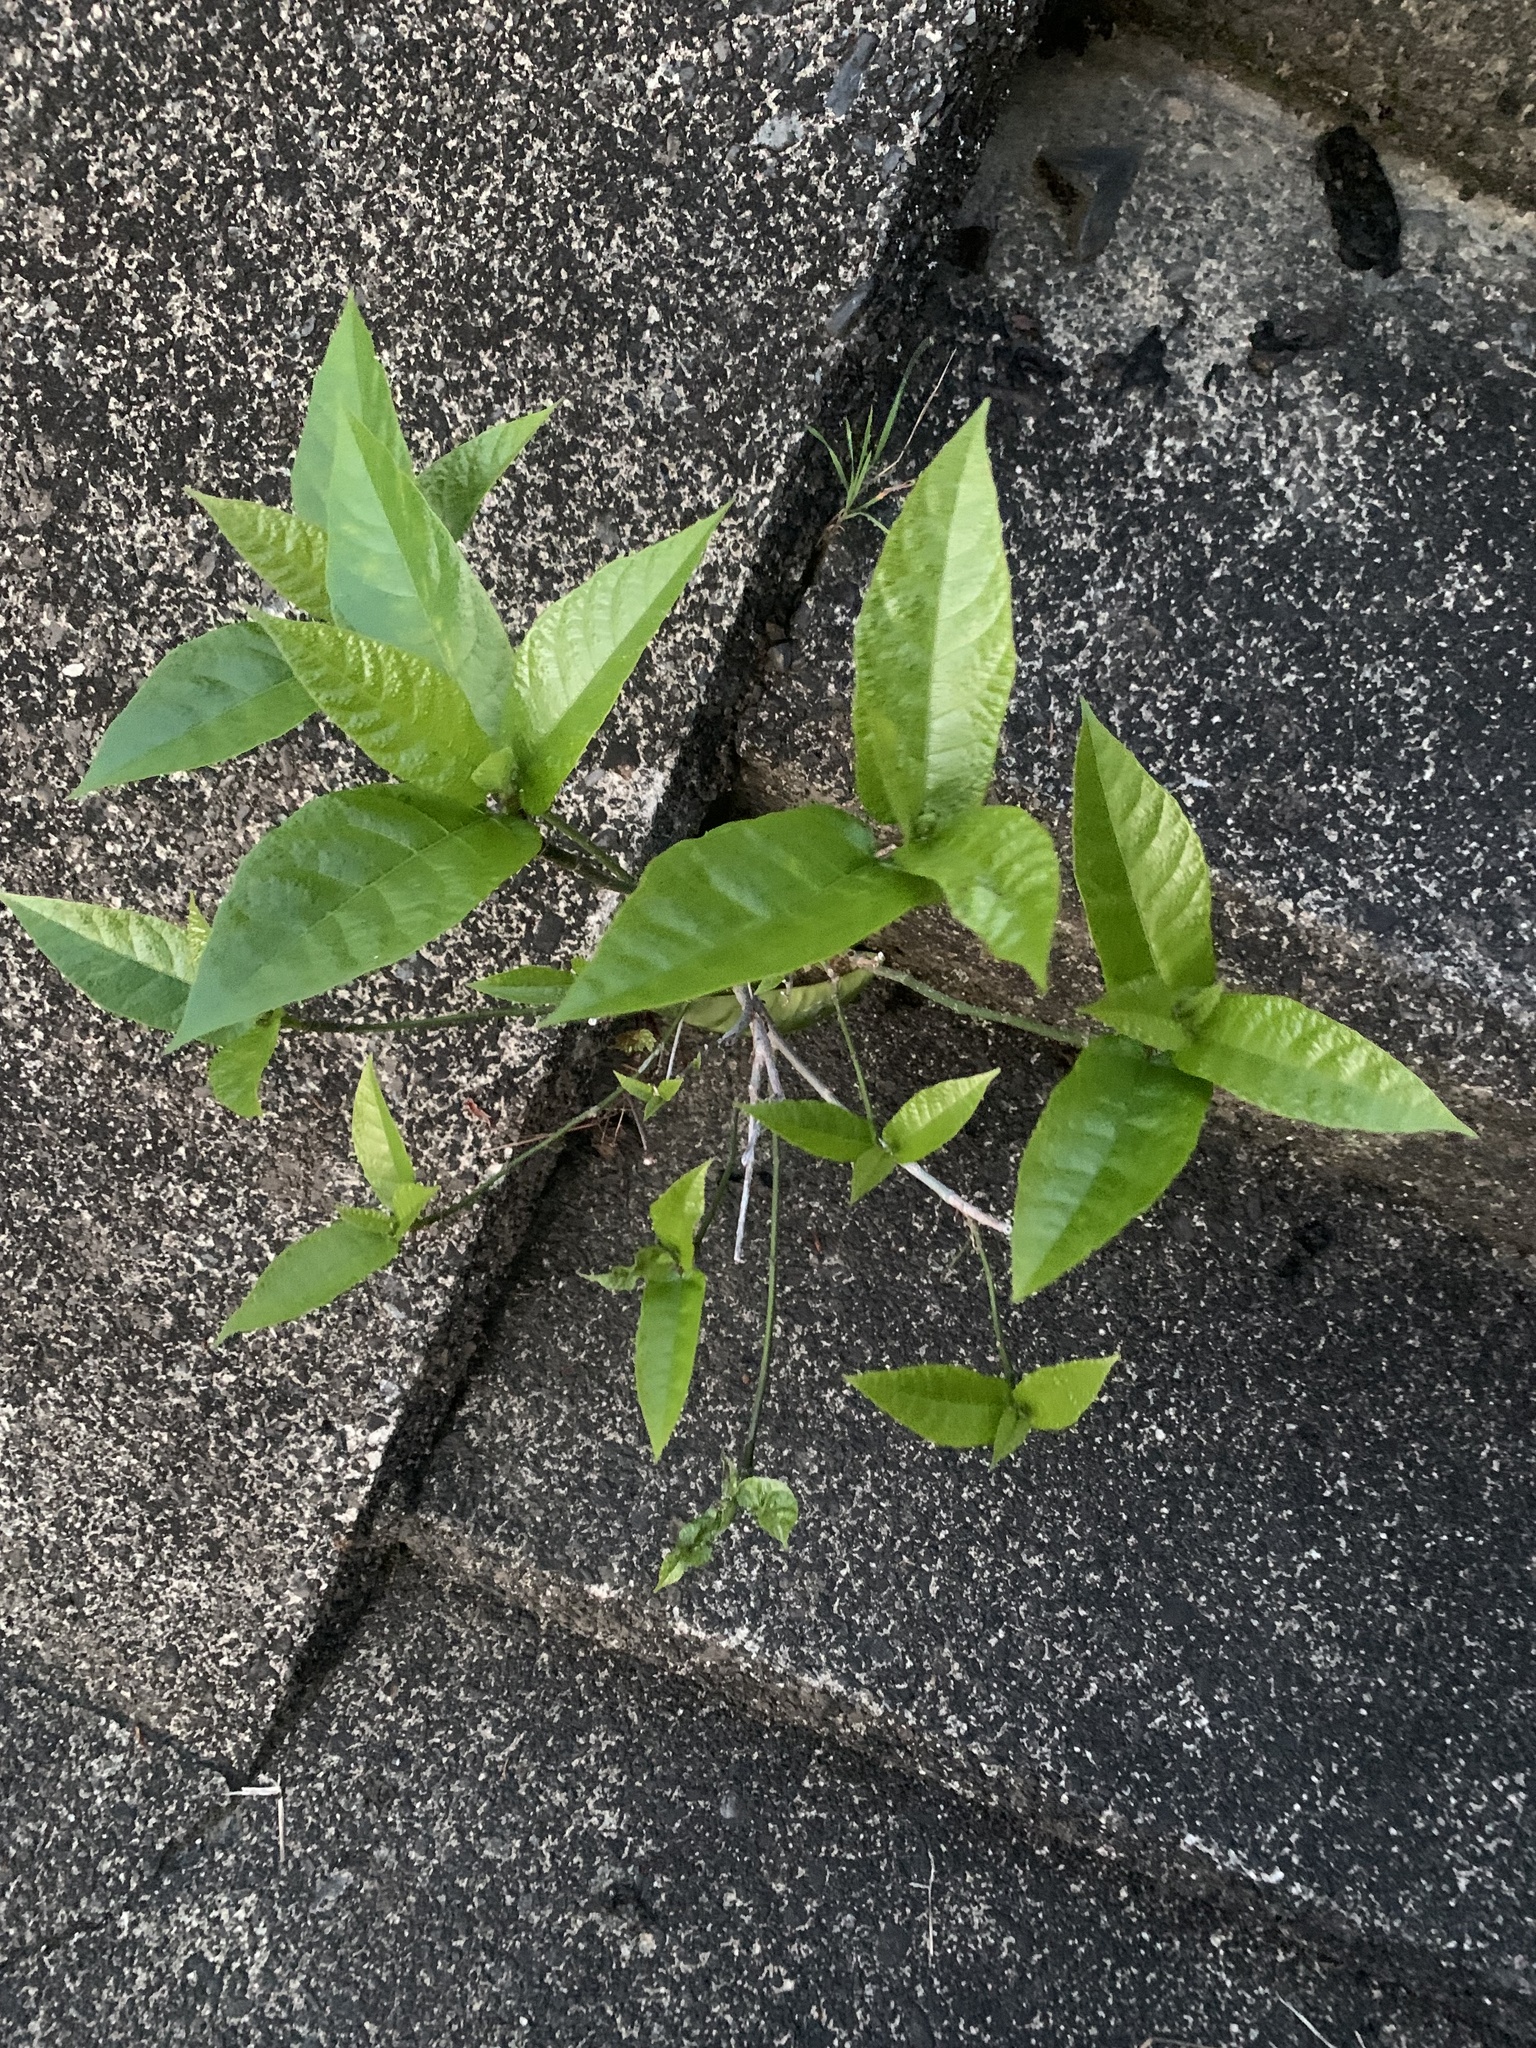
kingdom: Plantae
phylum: Tracheophyta
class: Magnoliopsida
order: Rosales
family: Moraceae
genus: Ficus
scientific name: Ficus erecta
